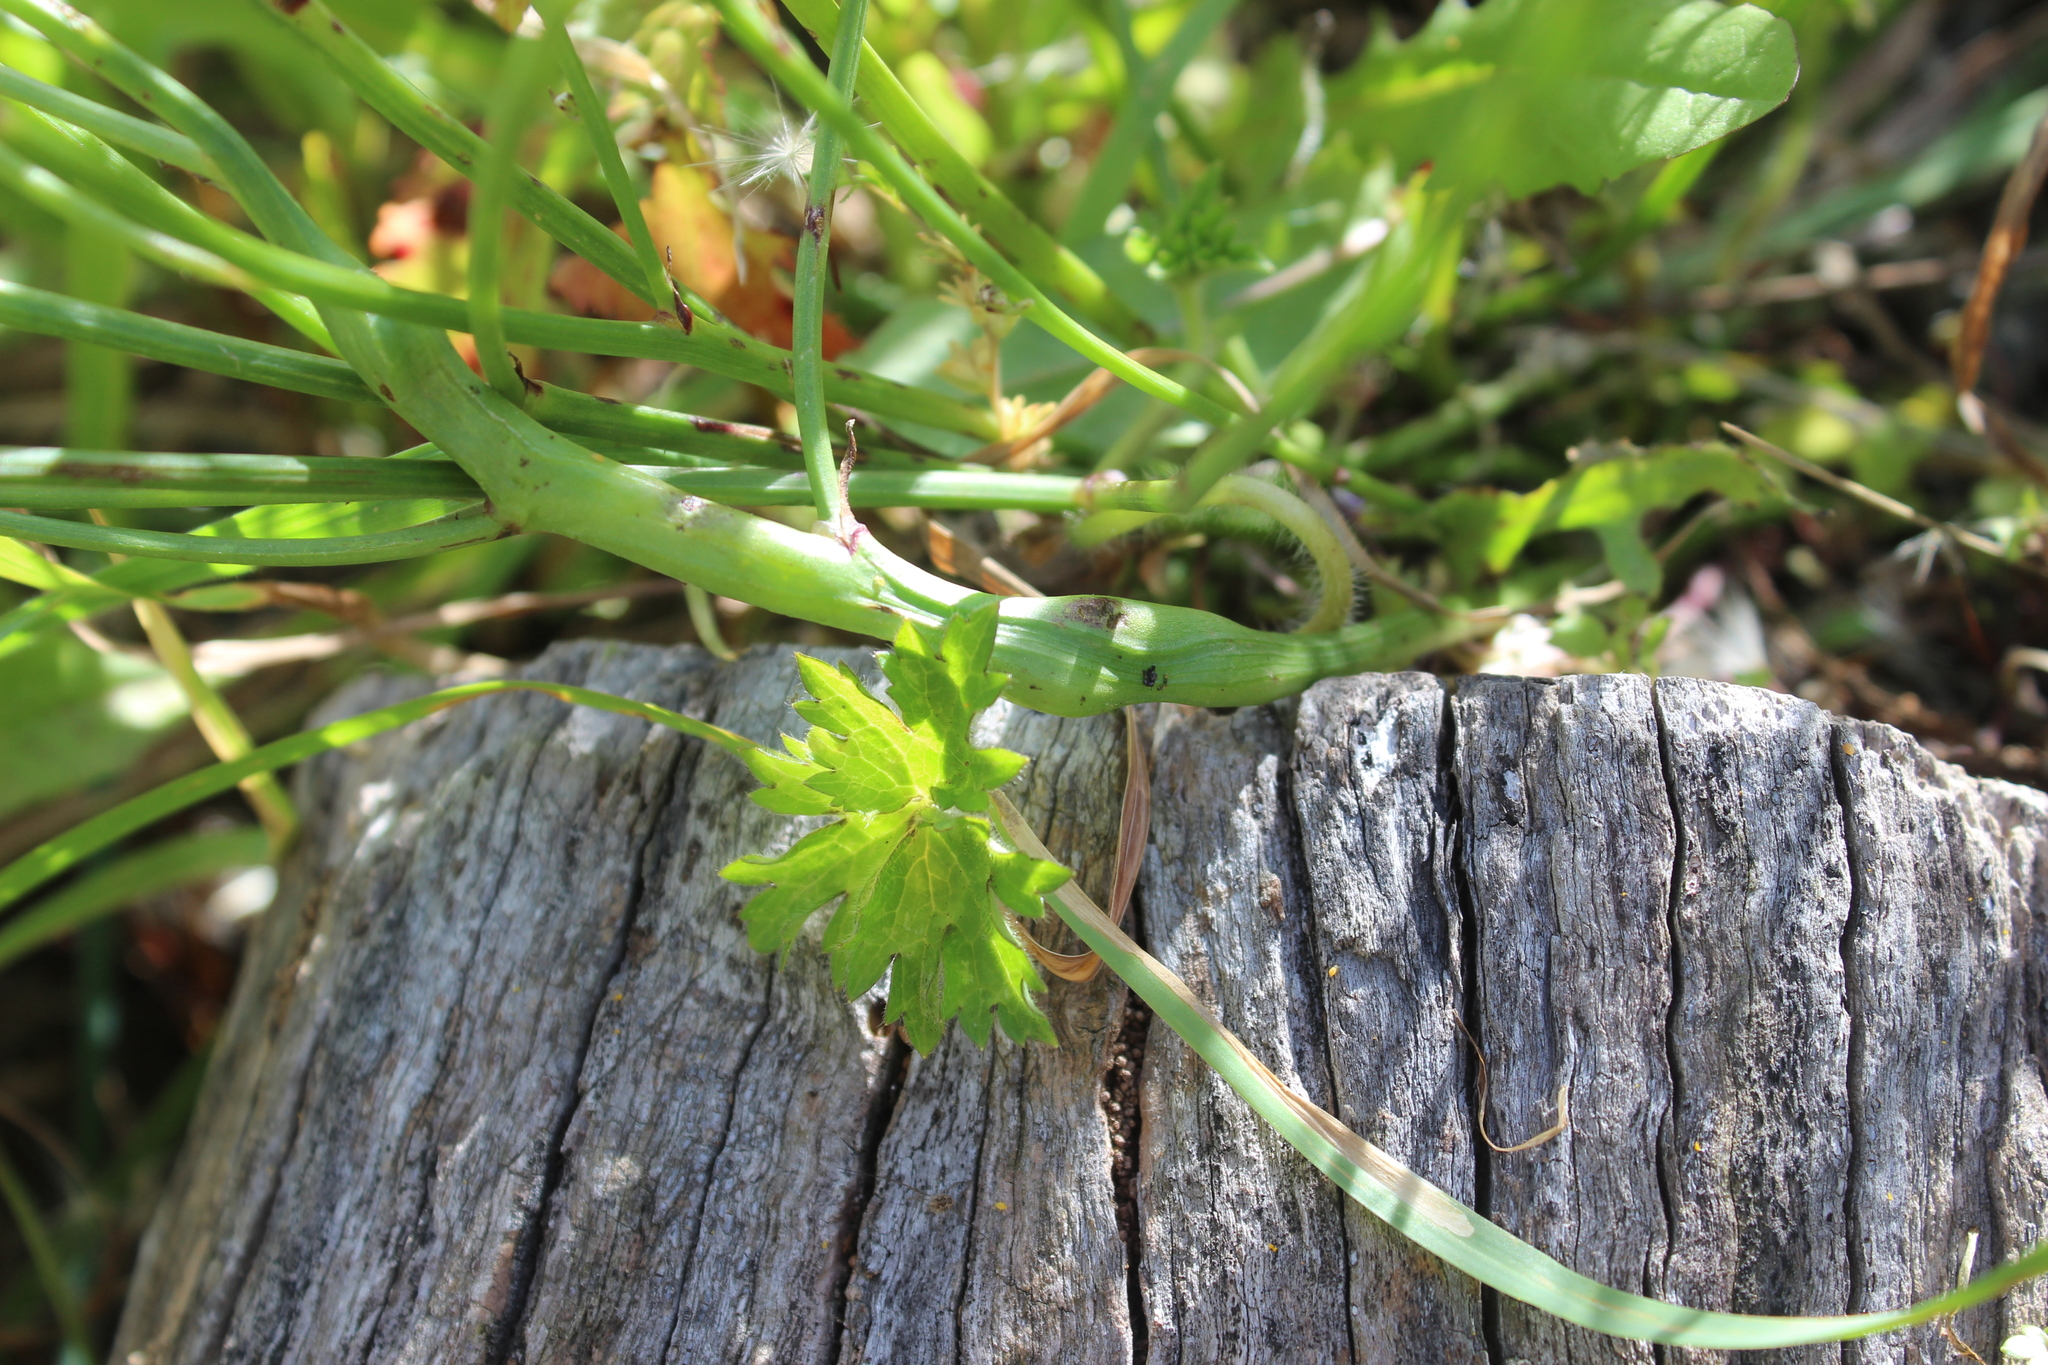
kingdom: Animalia
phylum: Arthropoda
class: Insecta
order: Hymenoptera
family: Cynipidae
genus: Phanacis
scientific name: Phanacis hypochoeridis
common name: Gall wasp
